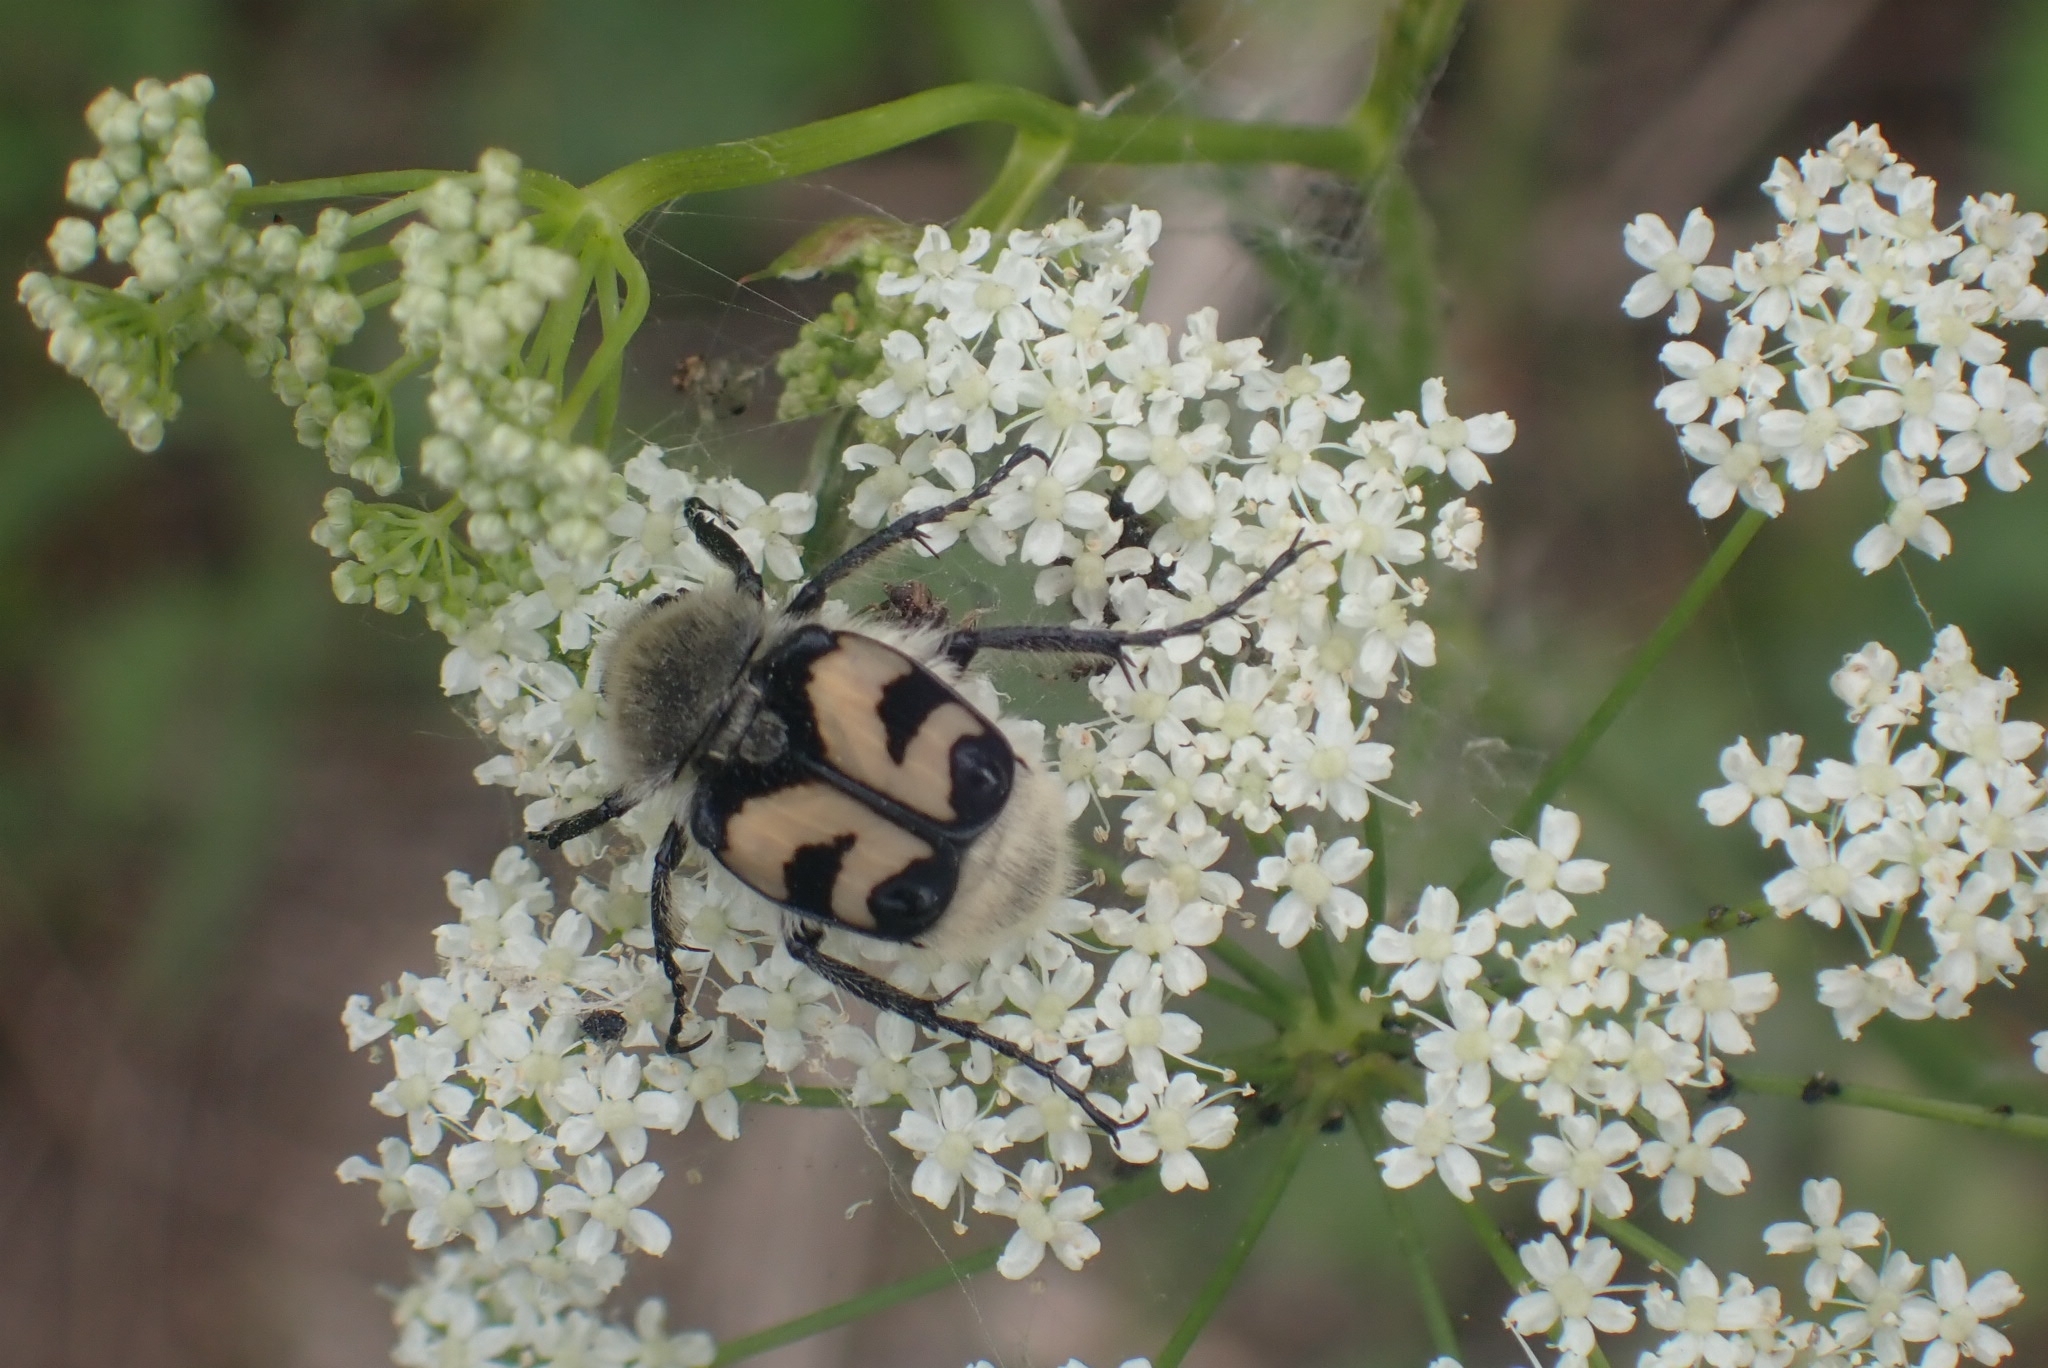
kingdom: Animalia
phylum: Arthropoda
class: Insecta
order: Coleoptera
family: Scarabaeidae
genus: Trichius
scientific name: Trichius fasciatus
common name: Bee beetle
